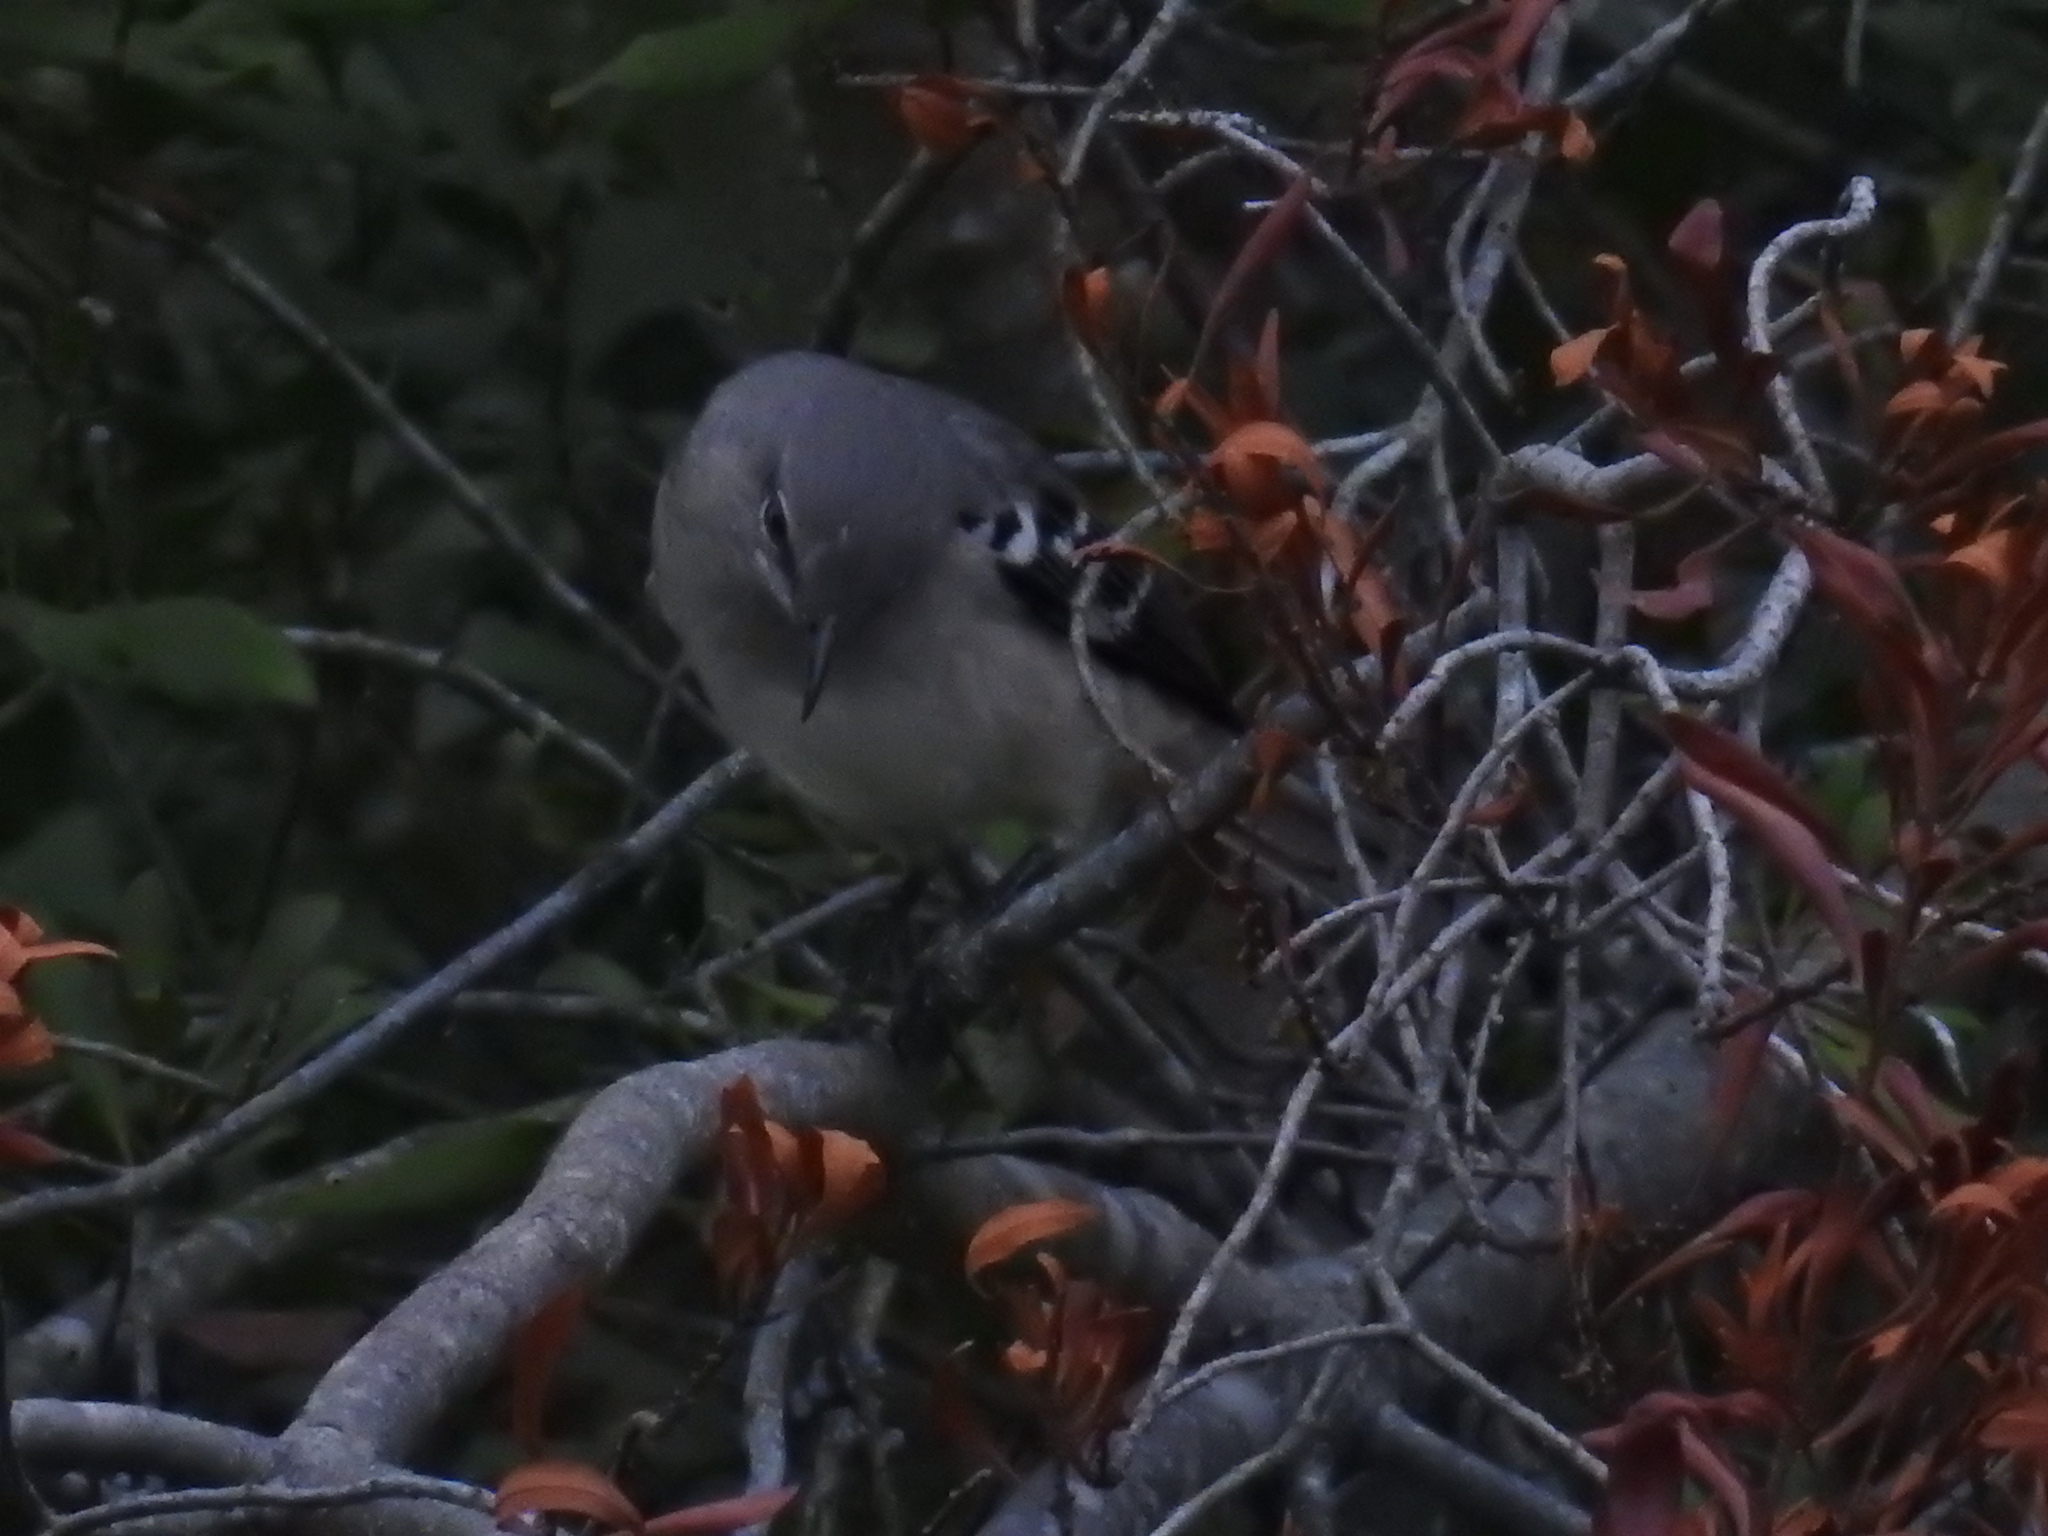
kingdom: Animalia
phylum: Chordata
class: Aves
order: Passeriformes
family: Mimidae
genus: Mimus
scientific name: Mimus polyglottos
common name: Northern mockingbird
